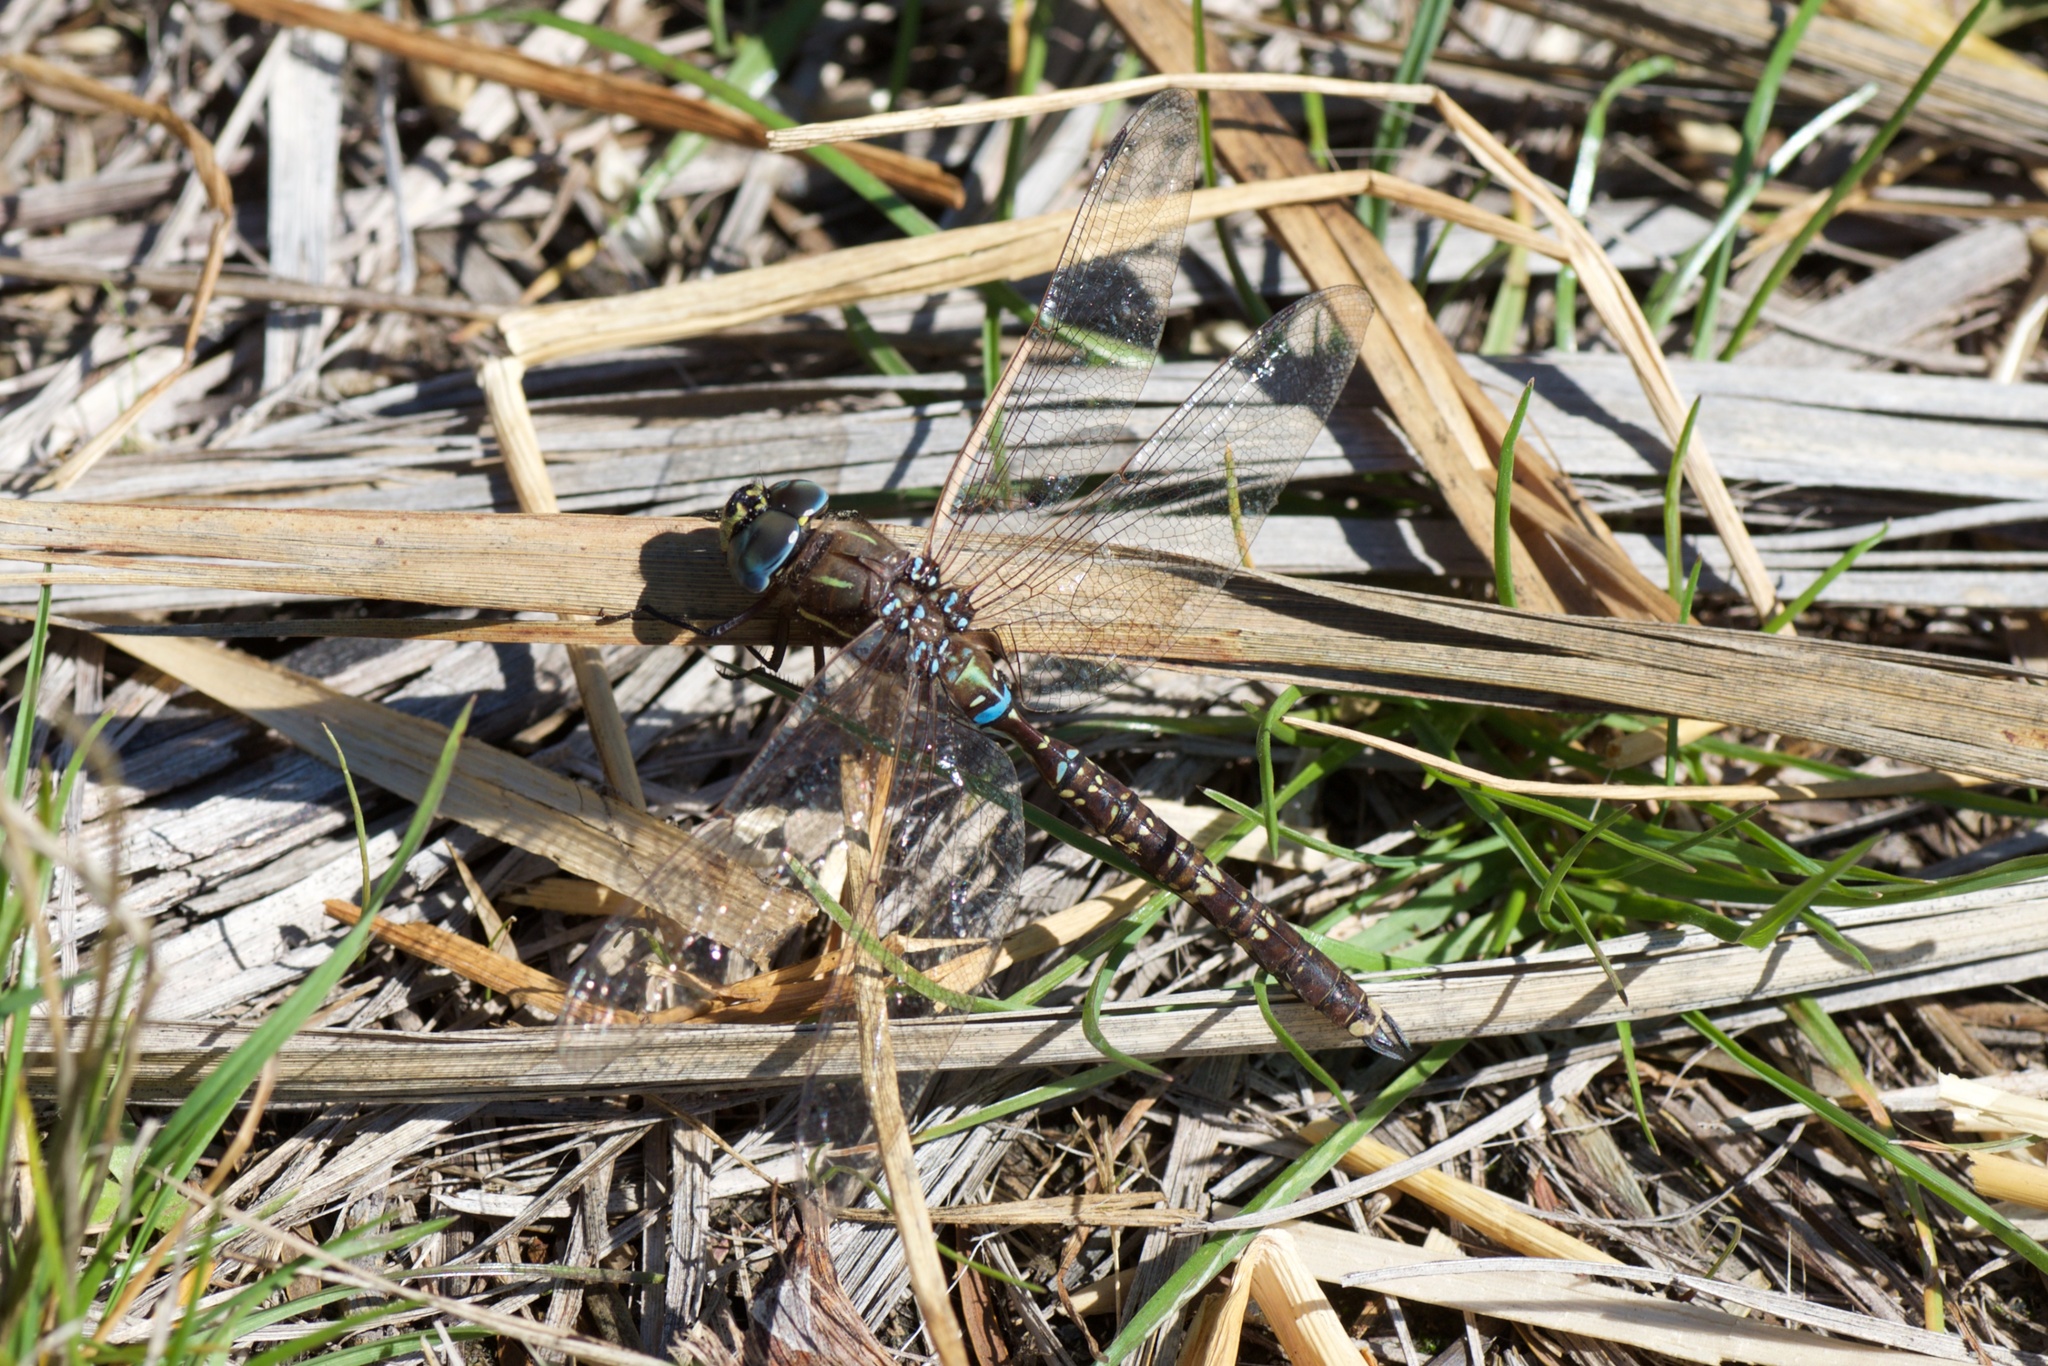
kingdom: Animalia
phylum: Arthropoda
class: Insecta
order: Odonata
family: Aeshnidae
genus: Aeshna
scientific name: Aeshna brevistyla
